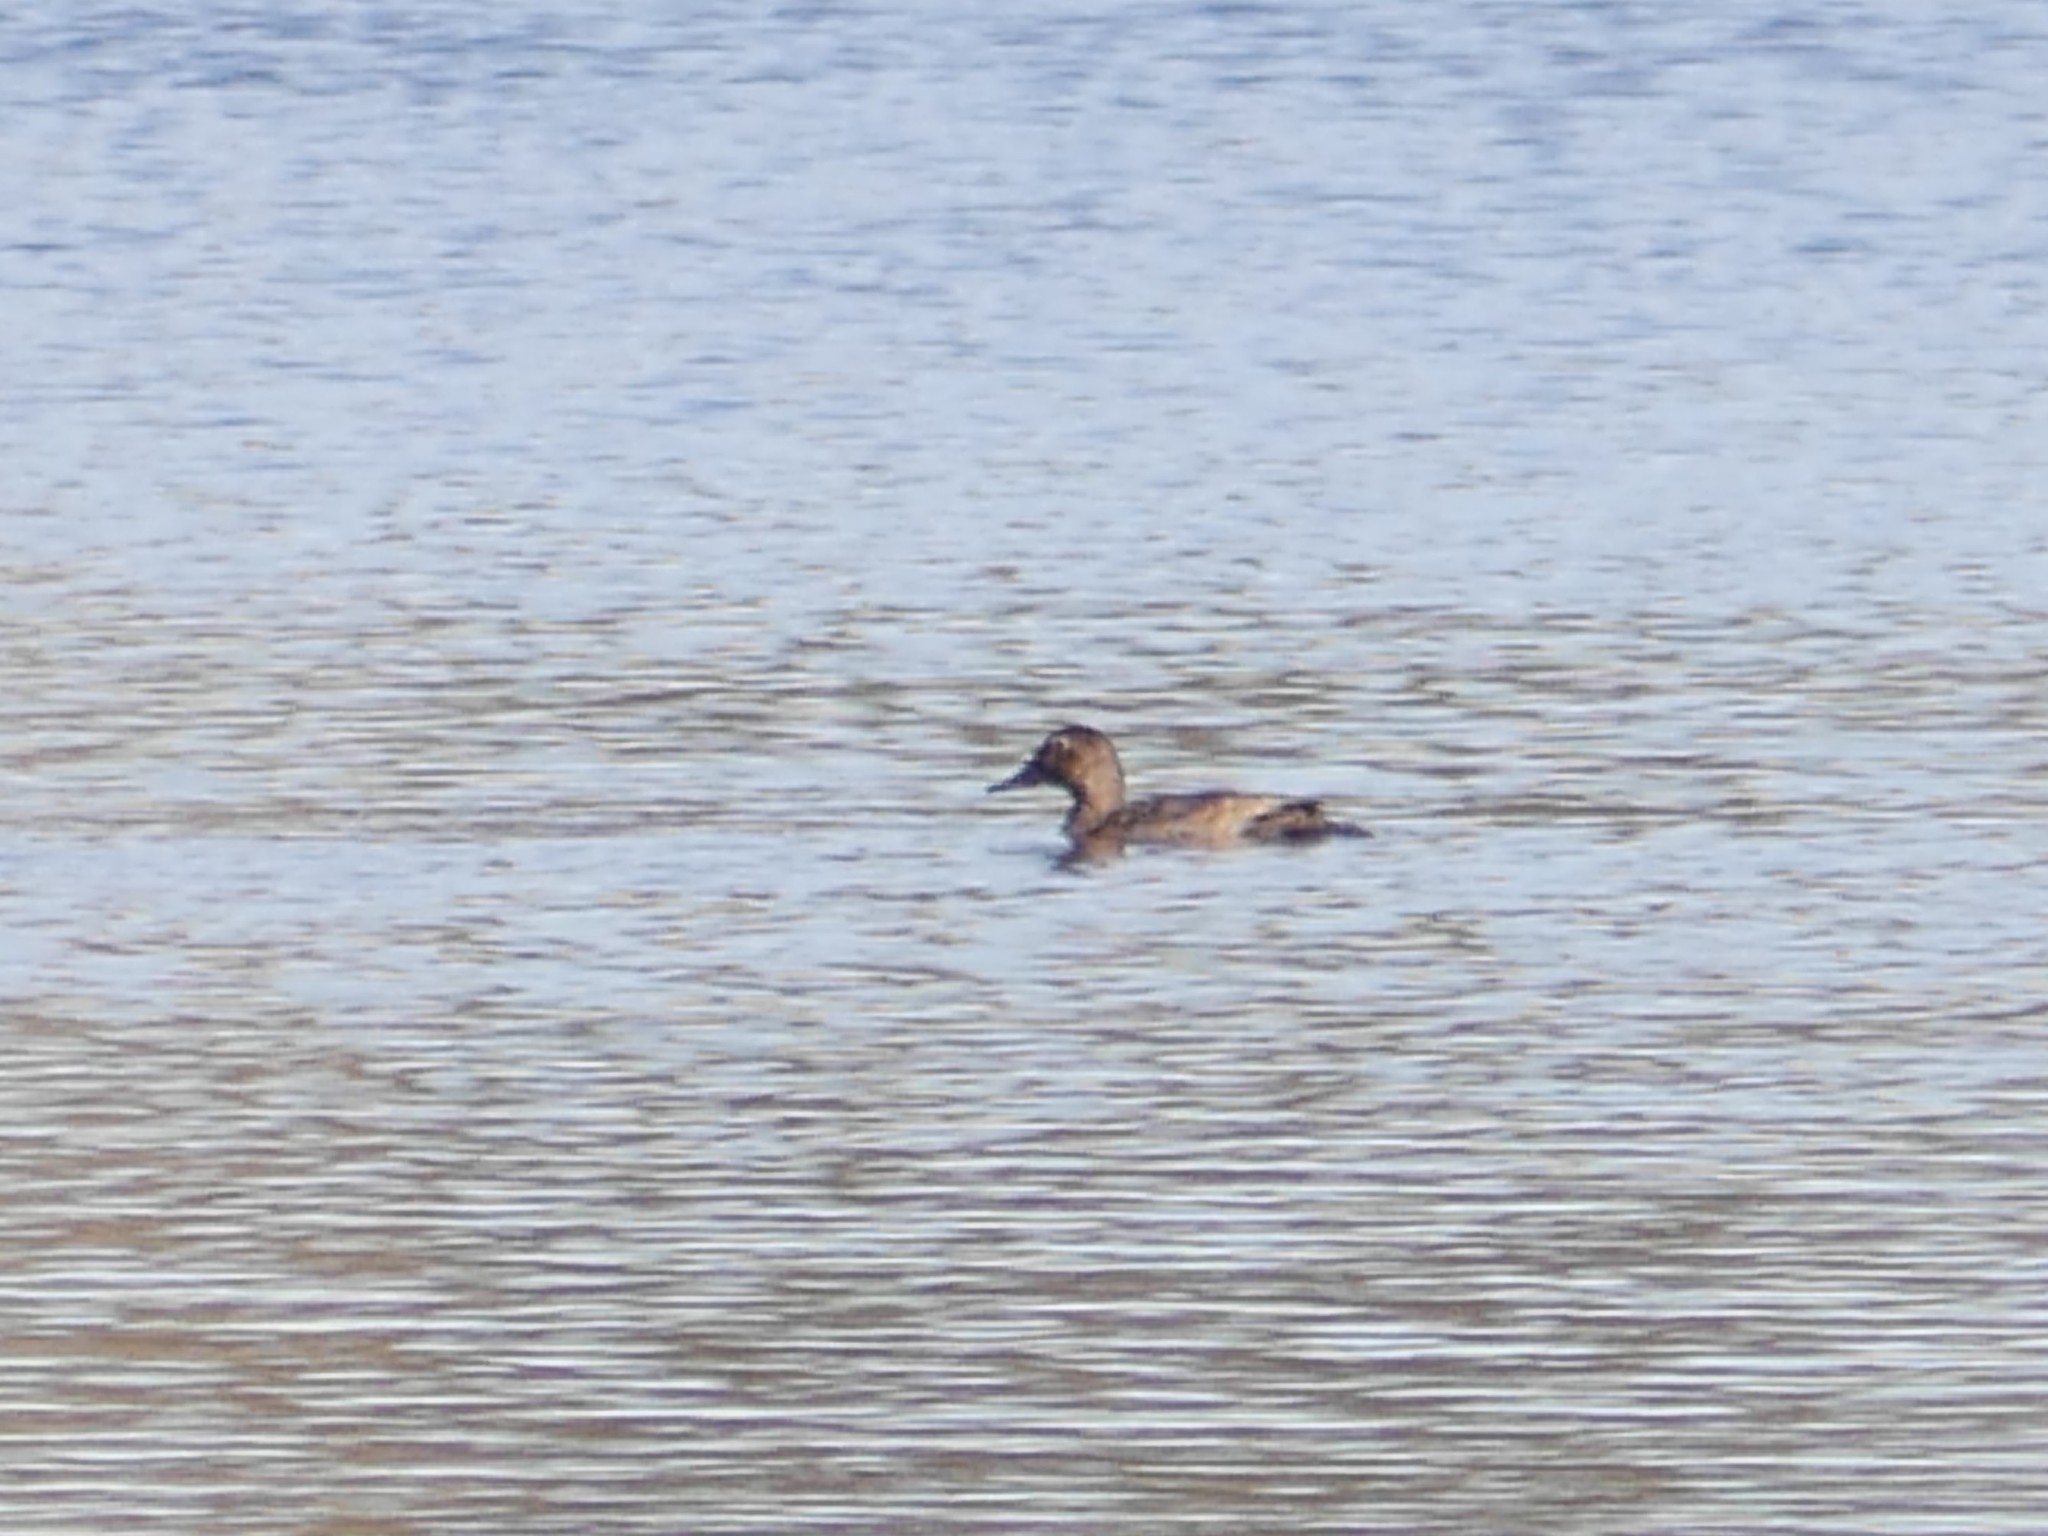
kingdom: Animalia
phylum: Chordata
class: Aves
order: Anseriformes
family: Anatidae
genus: Aythya
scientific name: Aythya ferina
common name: Common pochard
